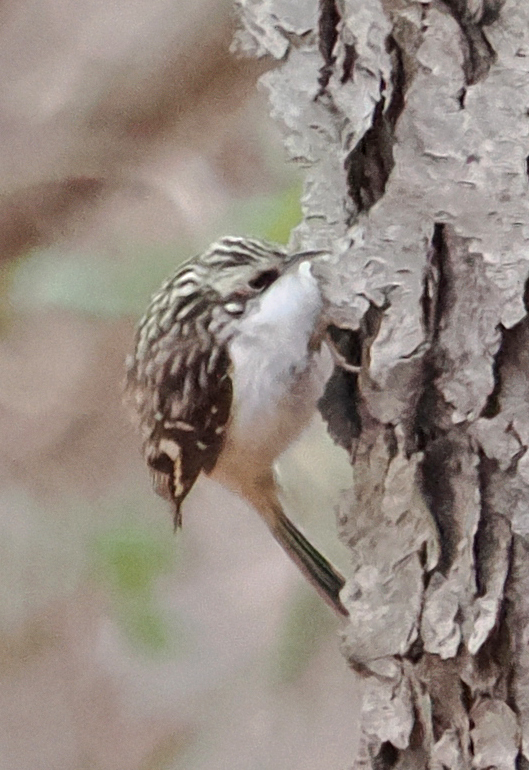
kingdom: Animalia
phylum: Chordata
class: Aves
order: Passeriformes
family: Certhiidae
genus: Certhia
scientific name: Certhia americana
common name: Brown creeper
